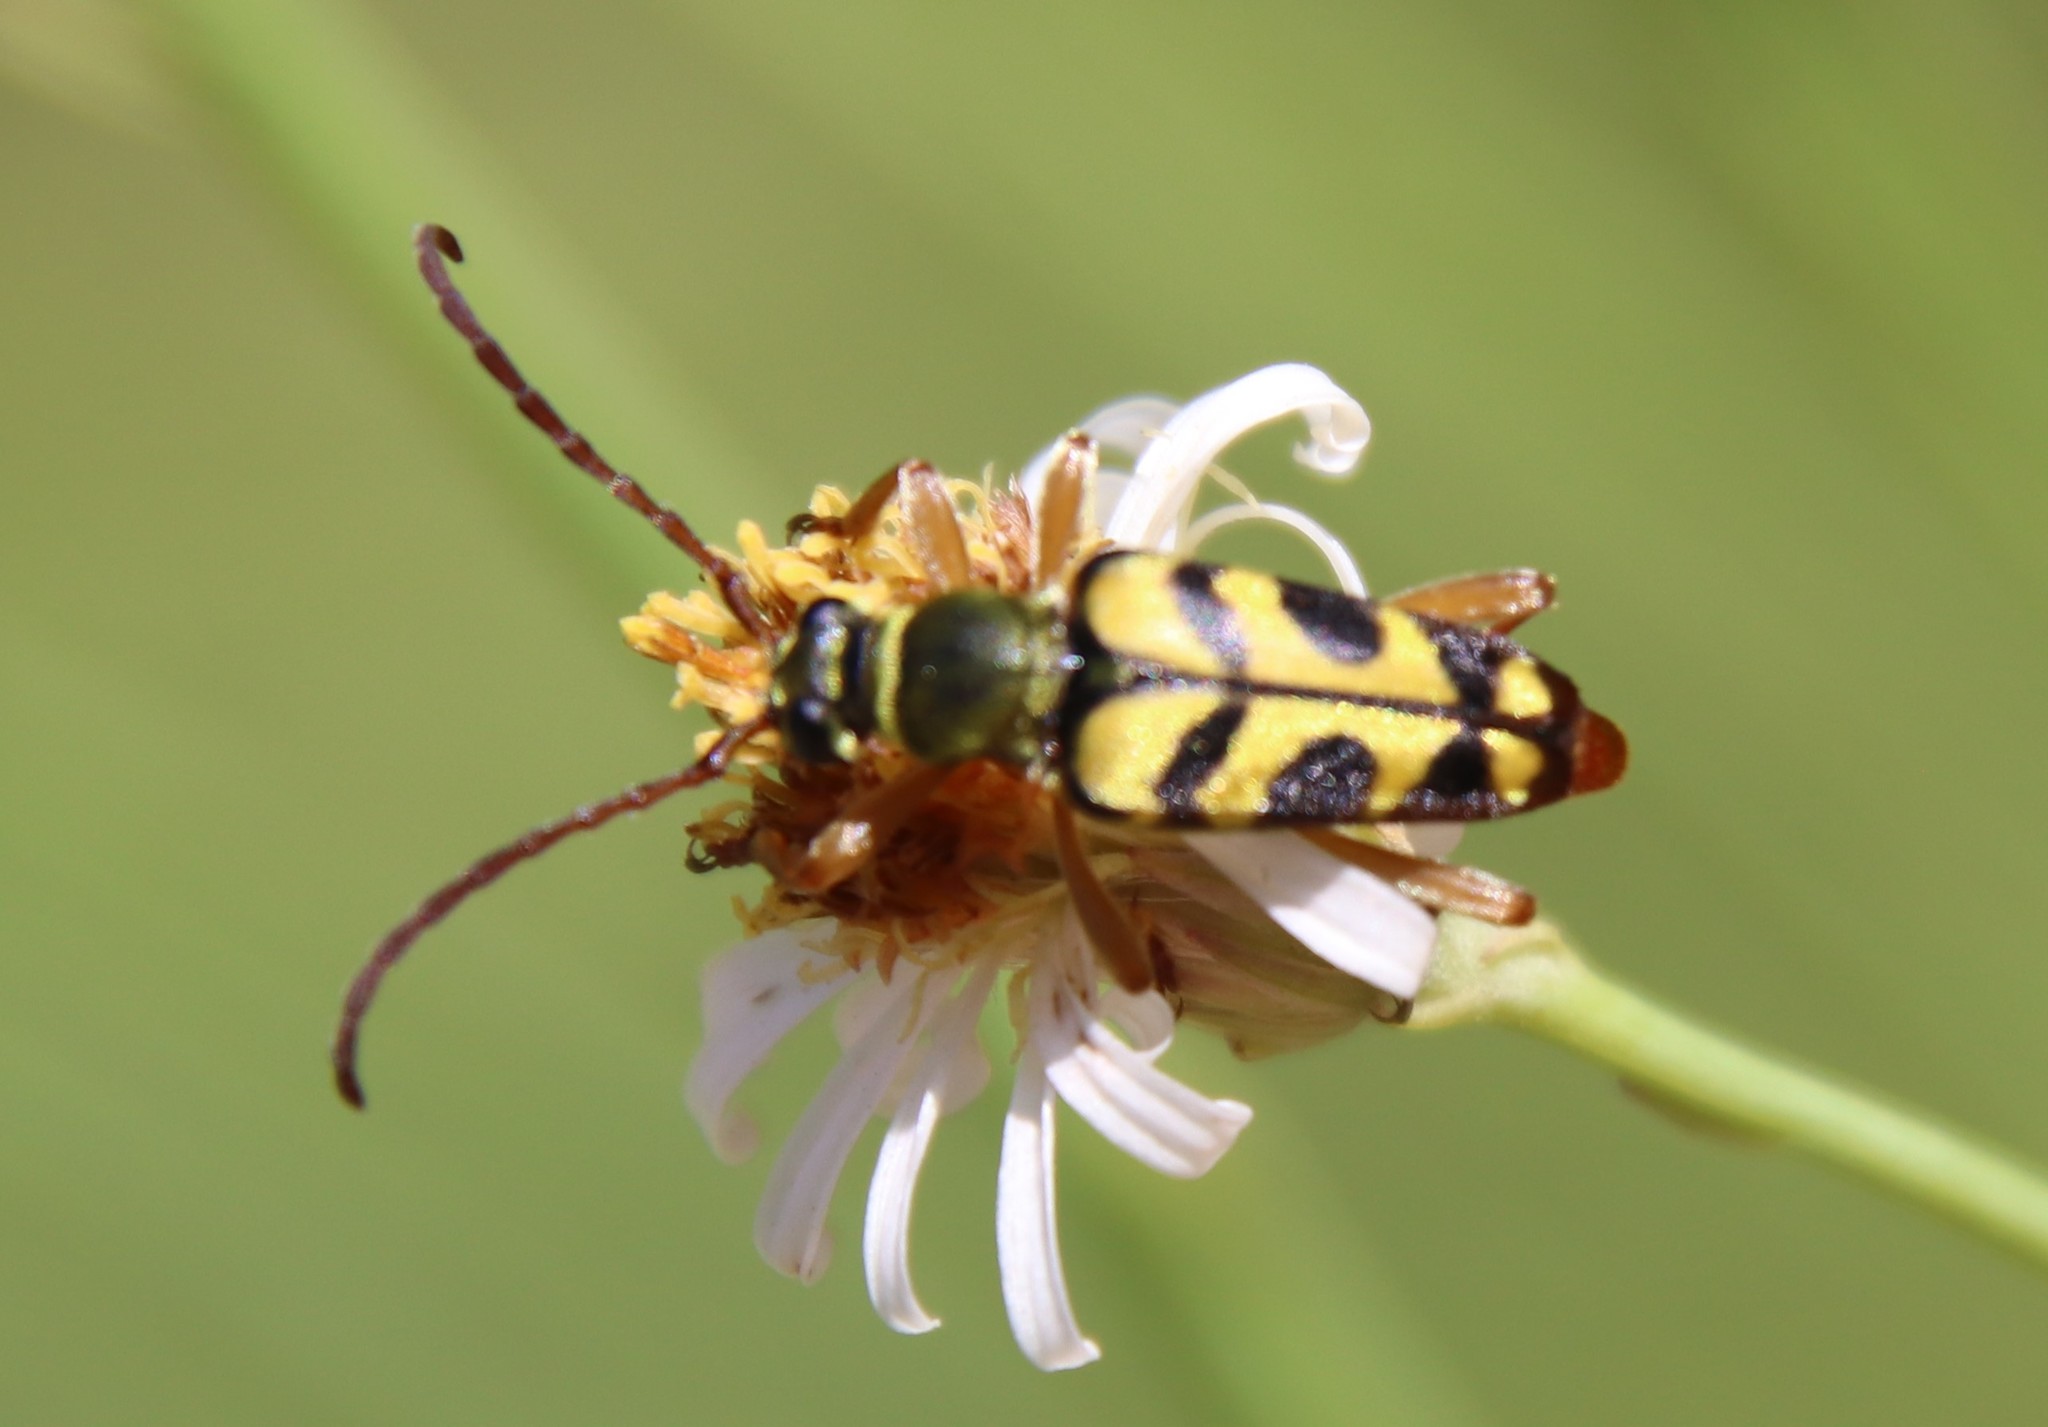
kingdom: Animalia
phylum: Arthropoda
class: Insecta
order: Coleoptera
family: Cerambycidae
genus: Strophiona
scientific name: Strophiona tigrina
